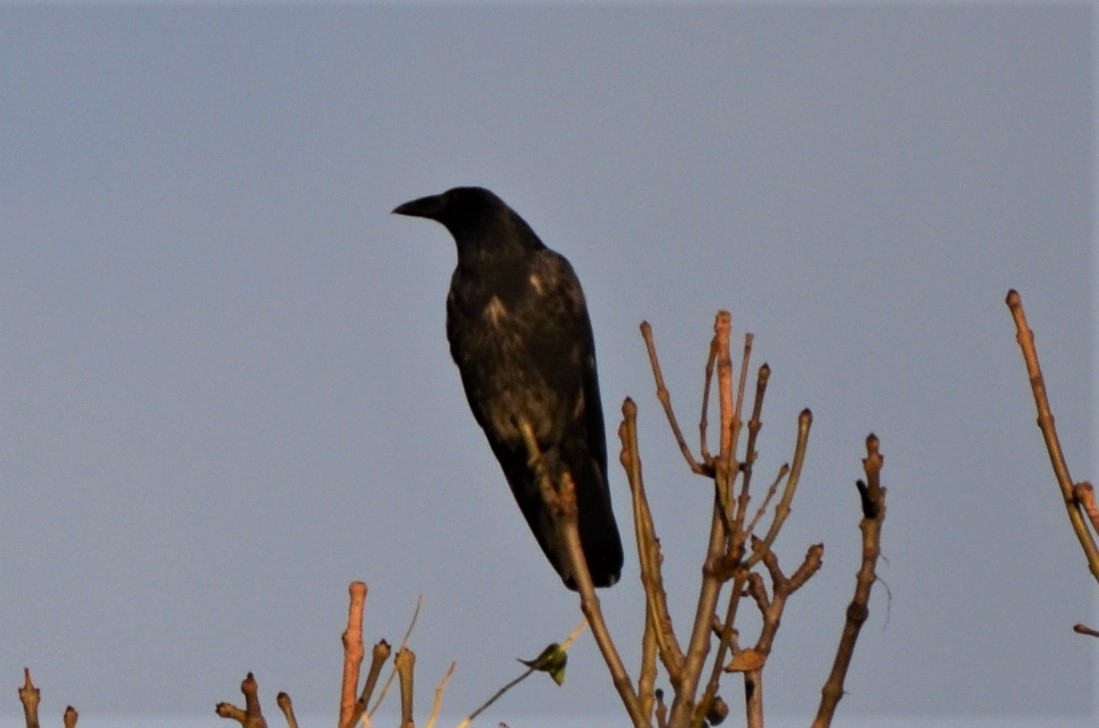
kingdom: Animalia
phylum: Chordata
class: Aves
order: Passeriformes
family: Corvidae
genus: Corvus
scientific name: Corvus
